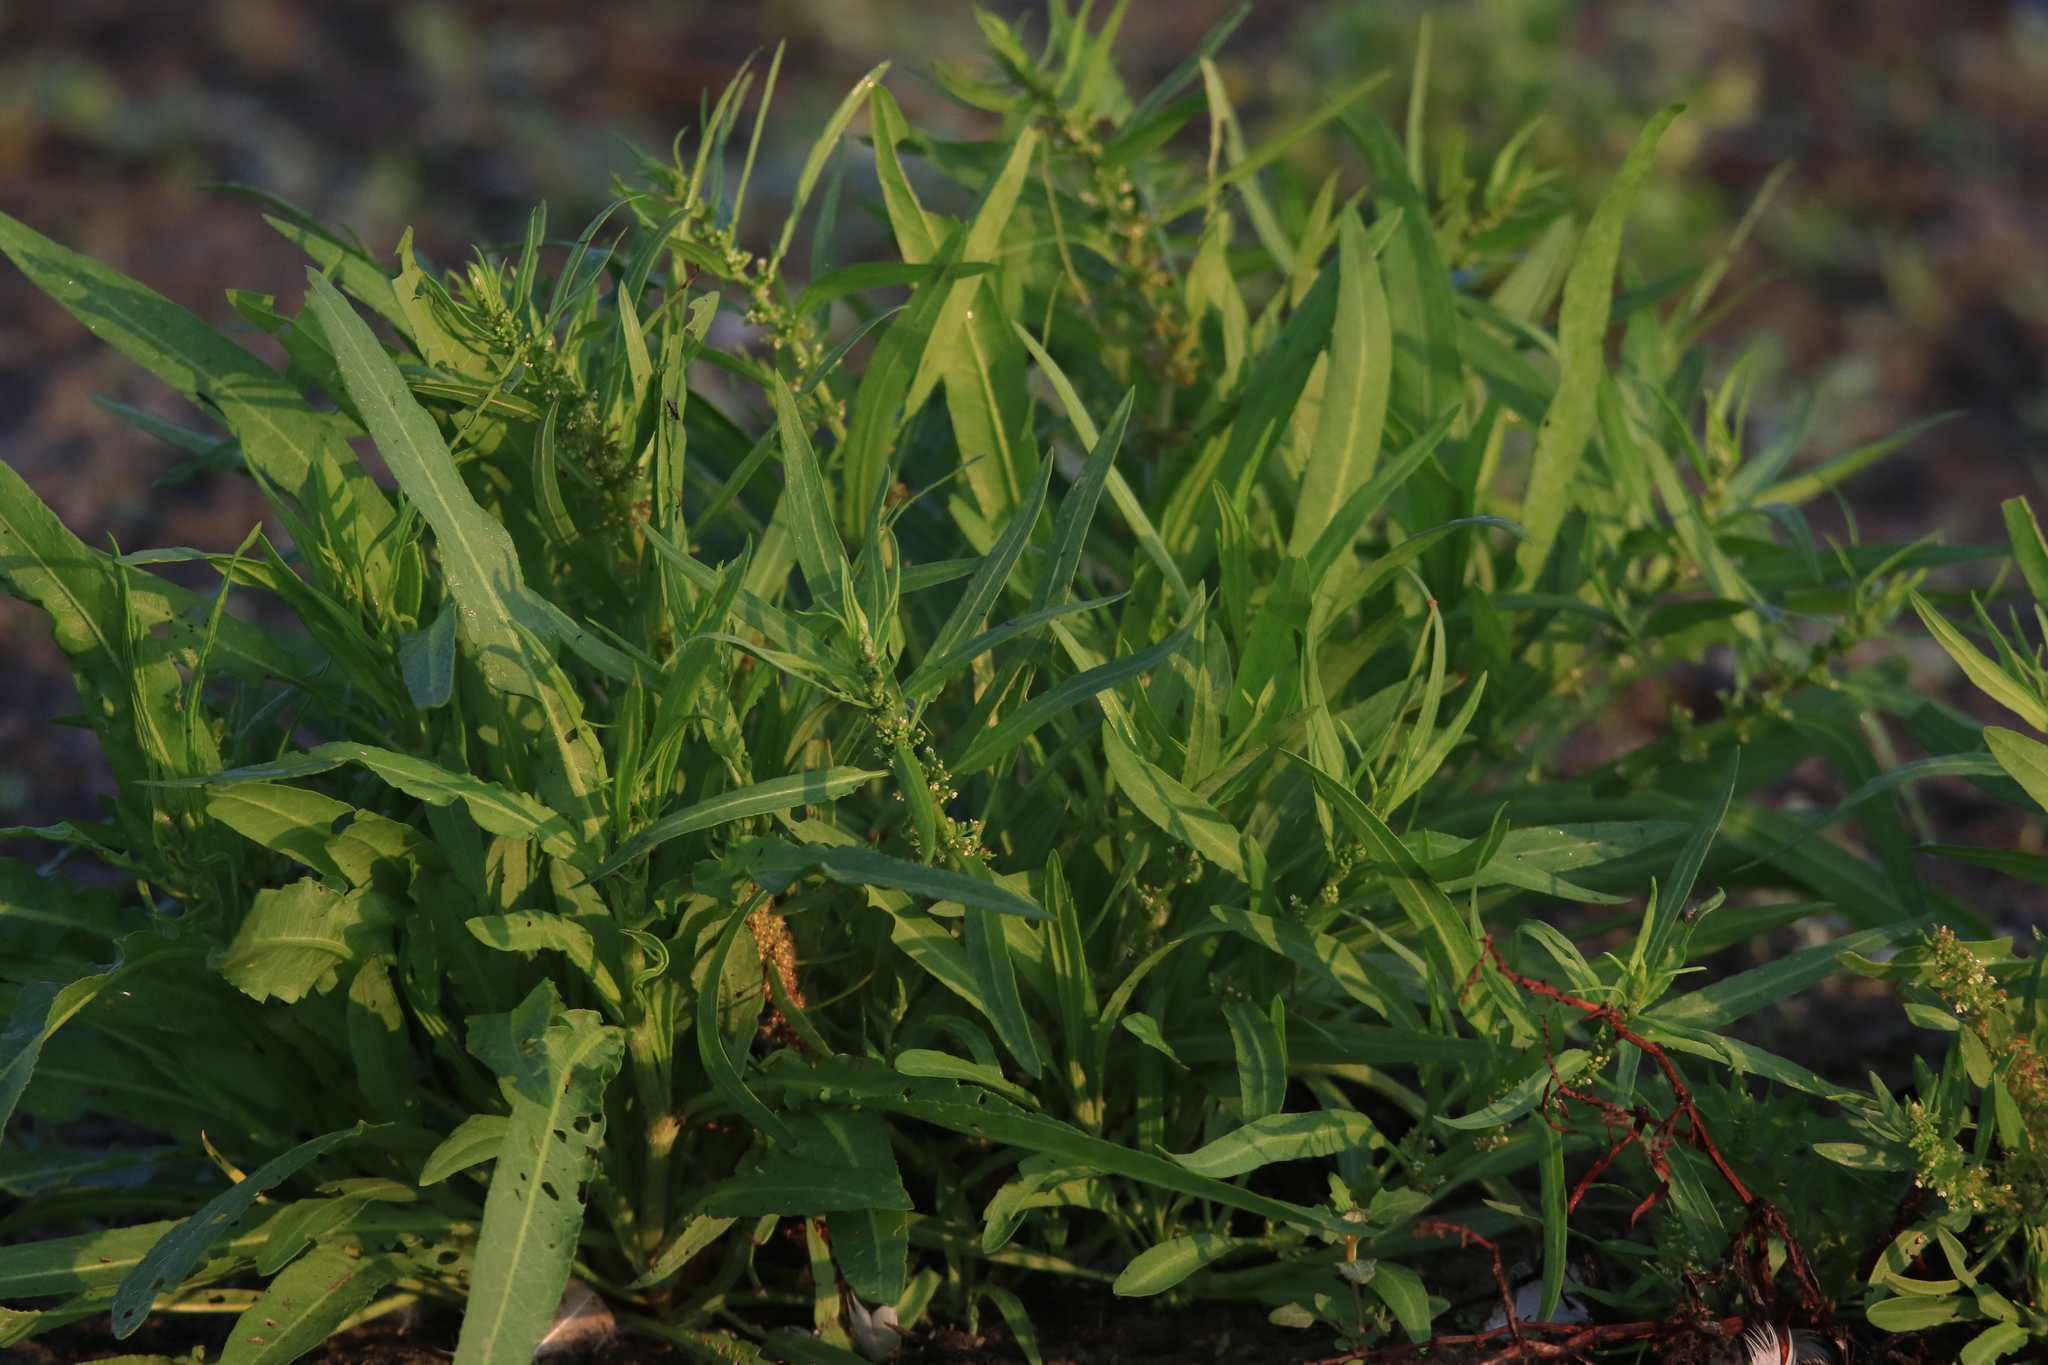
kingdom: Plantae
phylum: Tracheophyta
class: Magnoliopsida
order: Caryophyllales
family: Polygonaceae
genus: Rumex
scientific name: Rumex maritimus
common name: Golden dock
